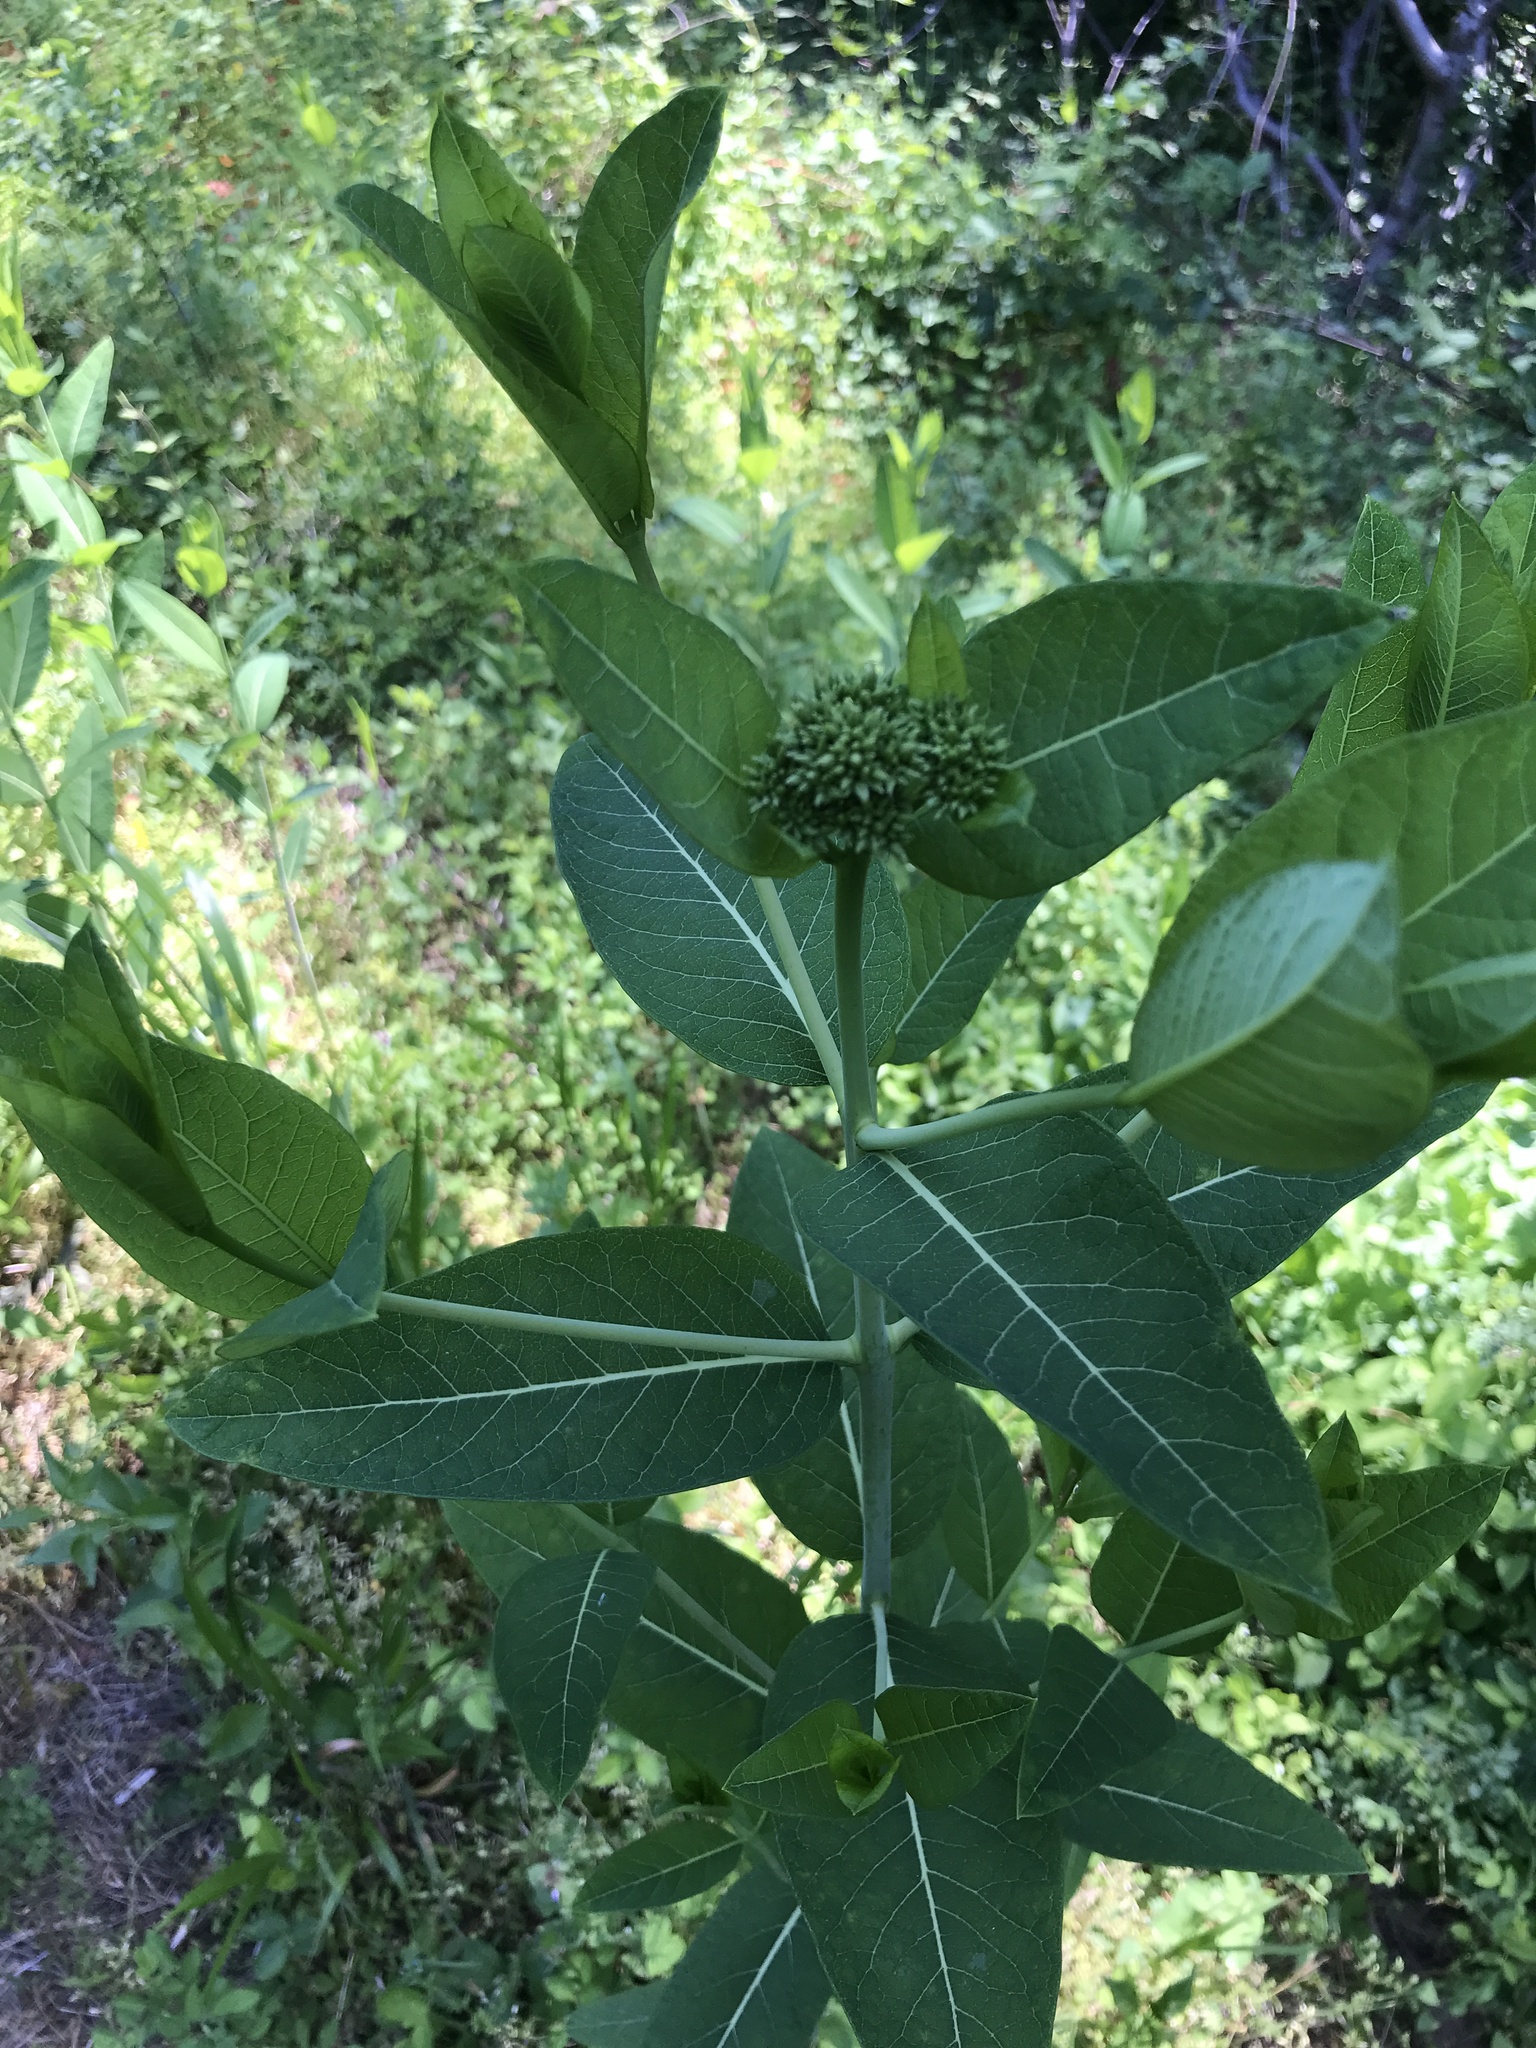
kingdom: Plantae
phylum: Tracheophyta
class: Magnoliopsida
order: Gentianales
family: Apocynaceae
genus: Apocynum
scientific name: Apocynum cannabinum
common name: Hemp dogbane
